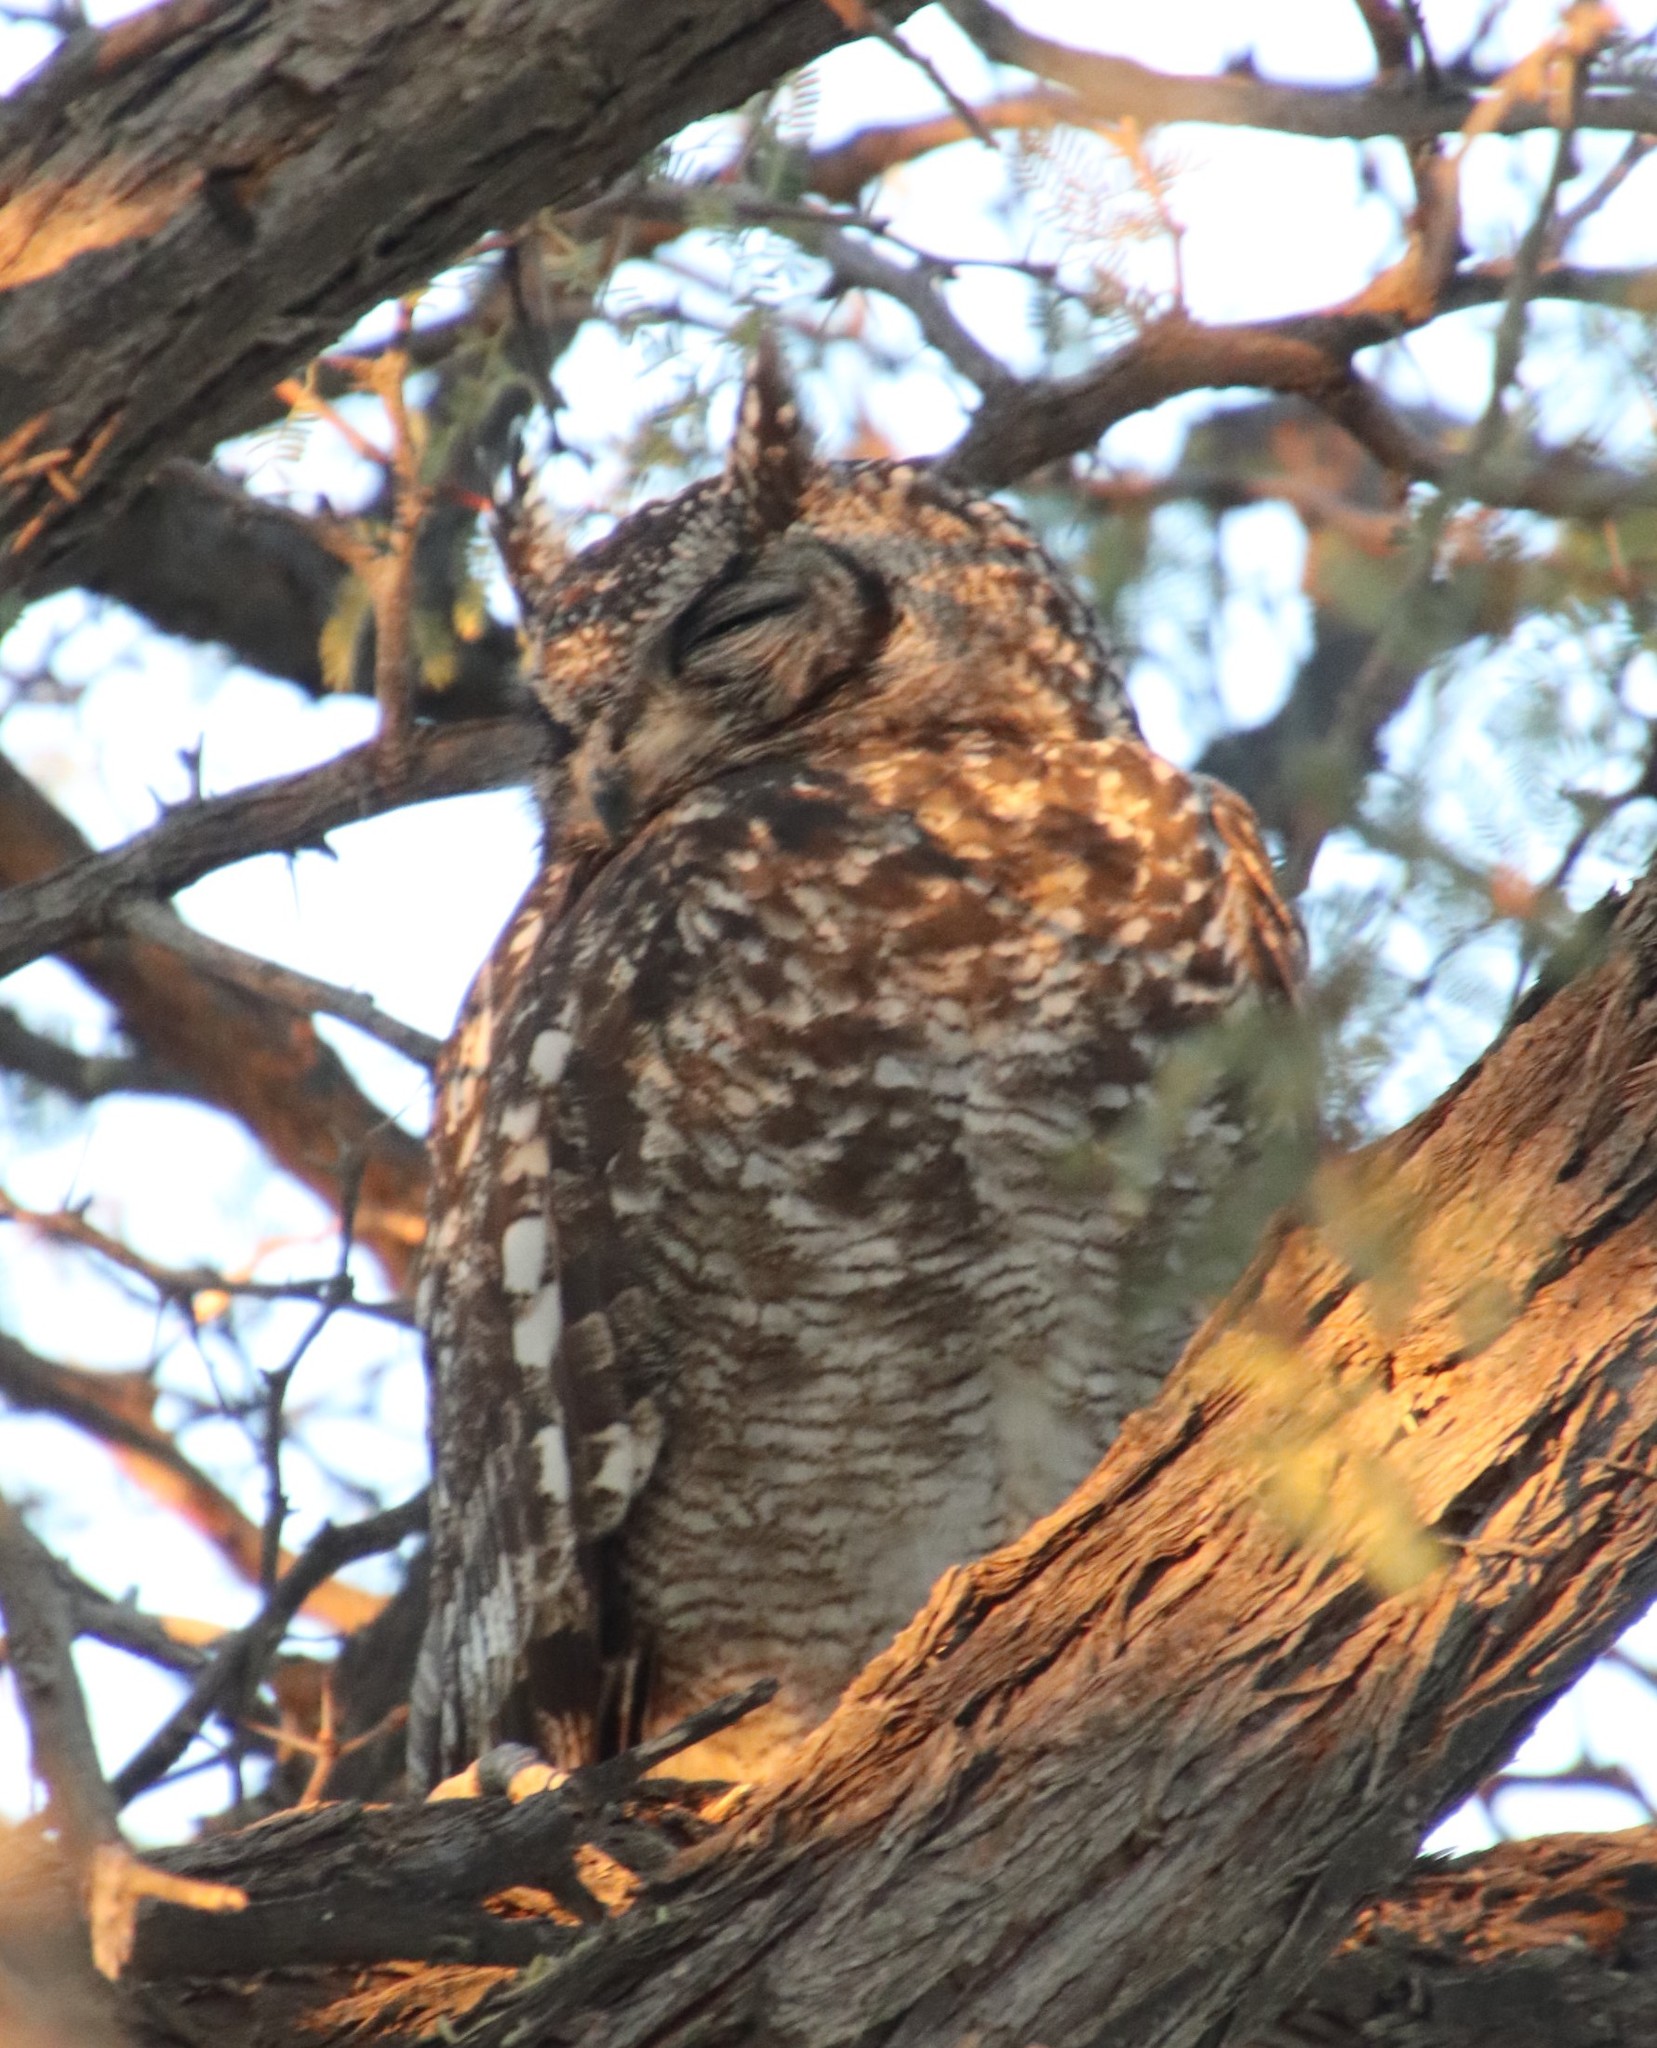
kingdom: Animalia
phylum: Chordata
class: Aves
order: Strigiformes
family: Strigidae
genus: Bubo
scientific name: Bubo africanus
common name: Spotted eagle-owl
